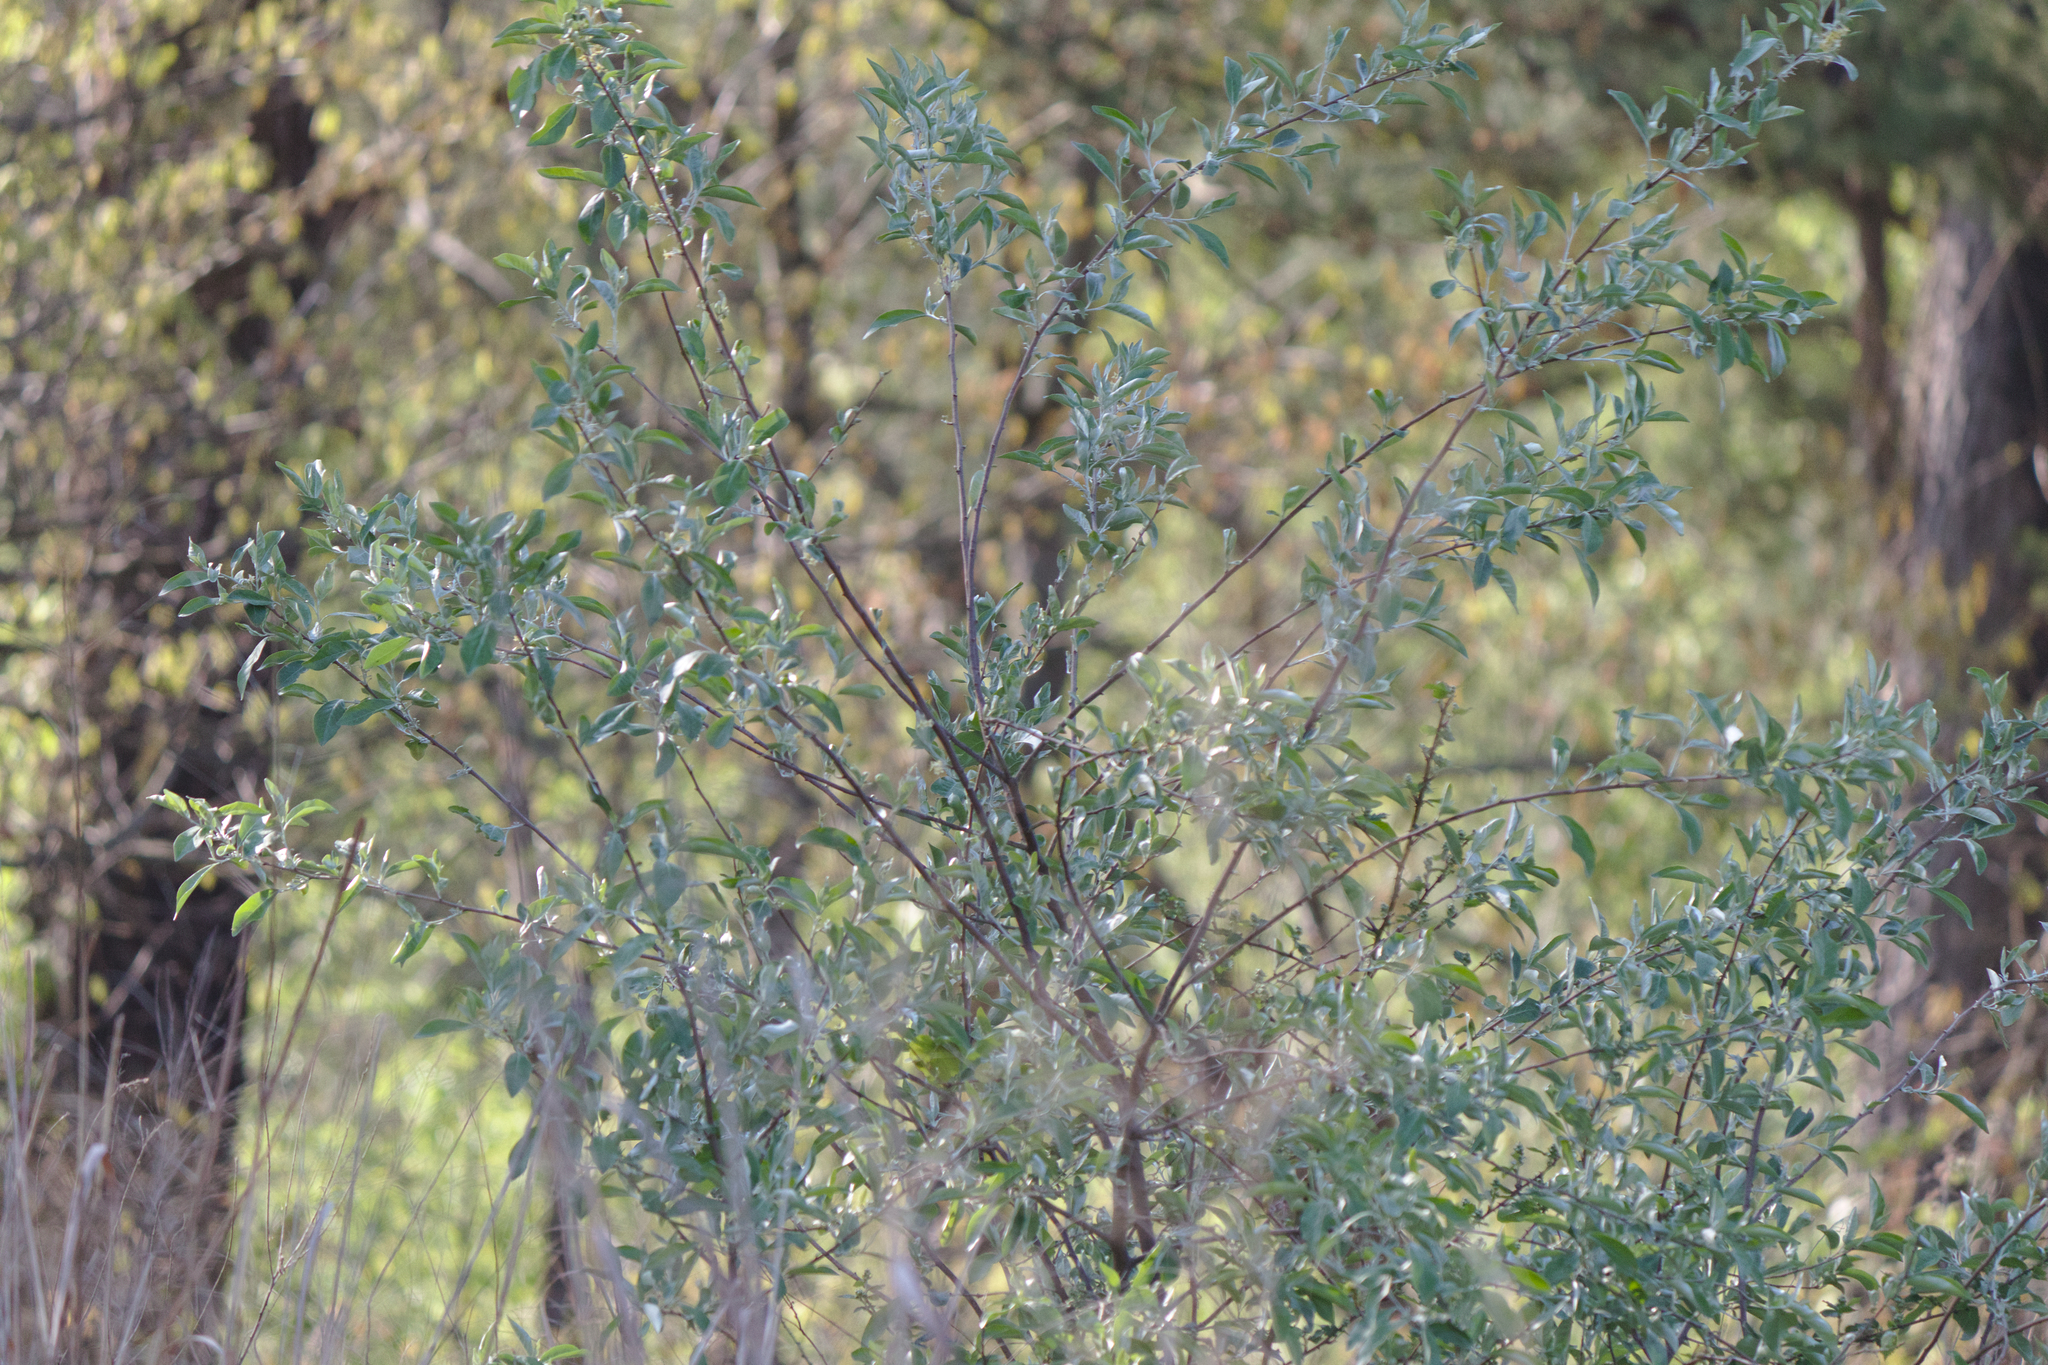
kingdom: Plantae
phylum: Tracheophyta
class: Magnoliopsida
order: Rosales
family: Elaeagnaceae
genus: Elaeagnus
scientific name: Elaeagnus umbellata
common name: Autumn olive
